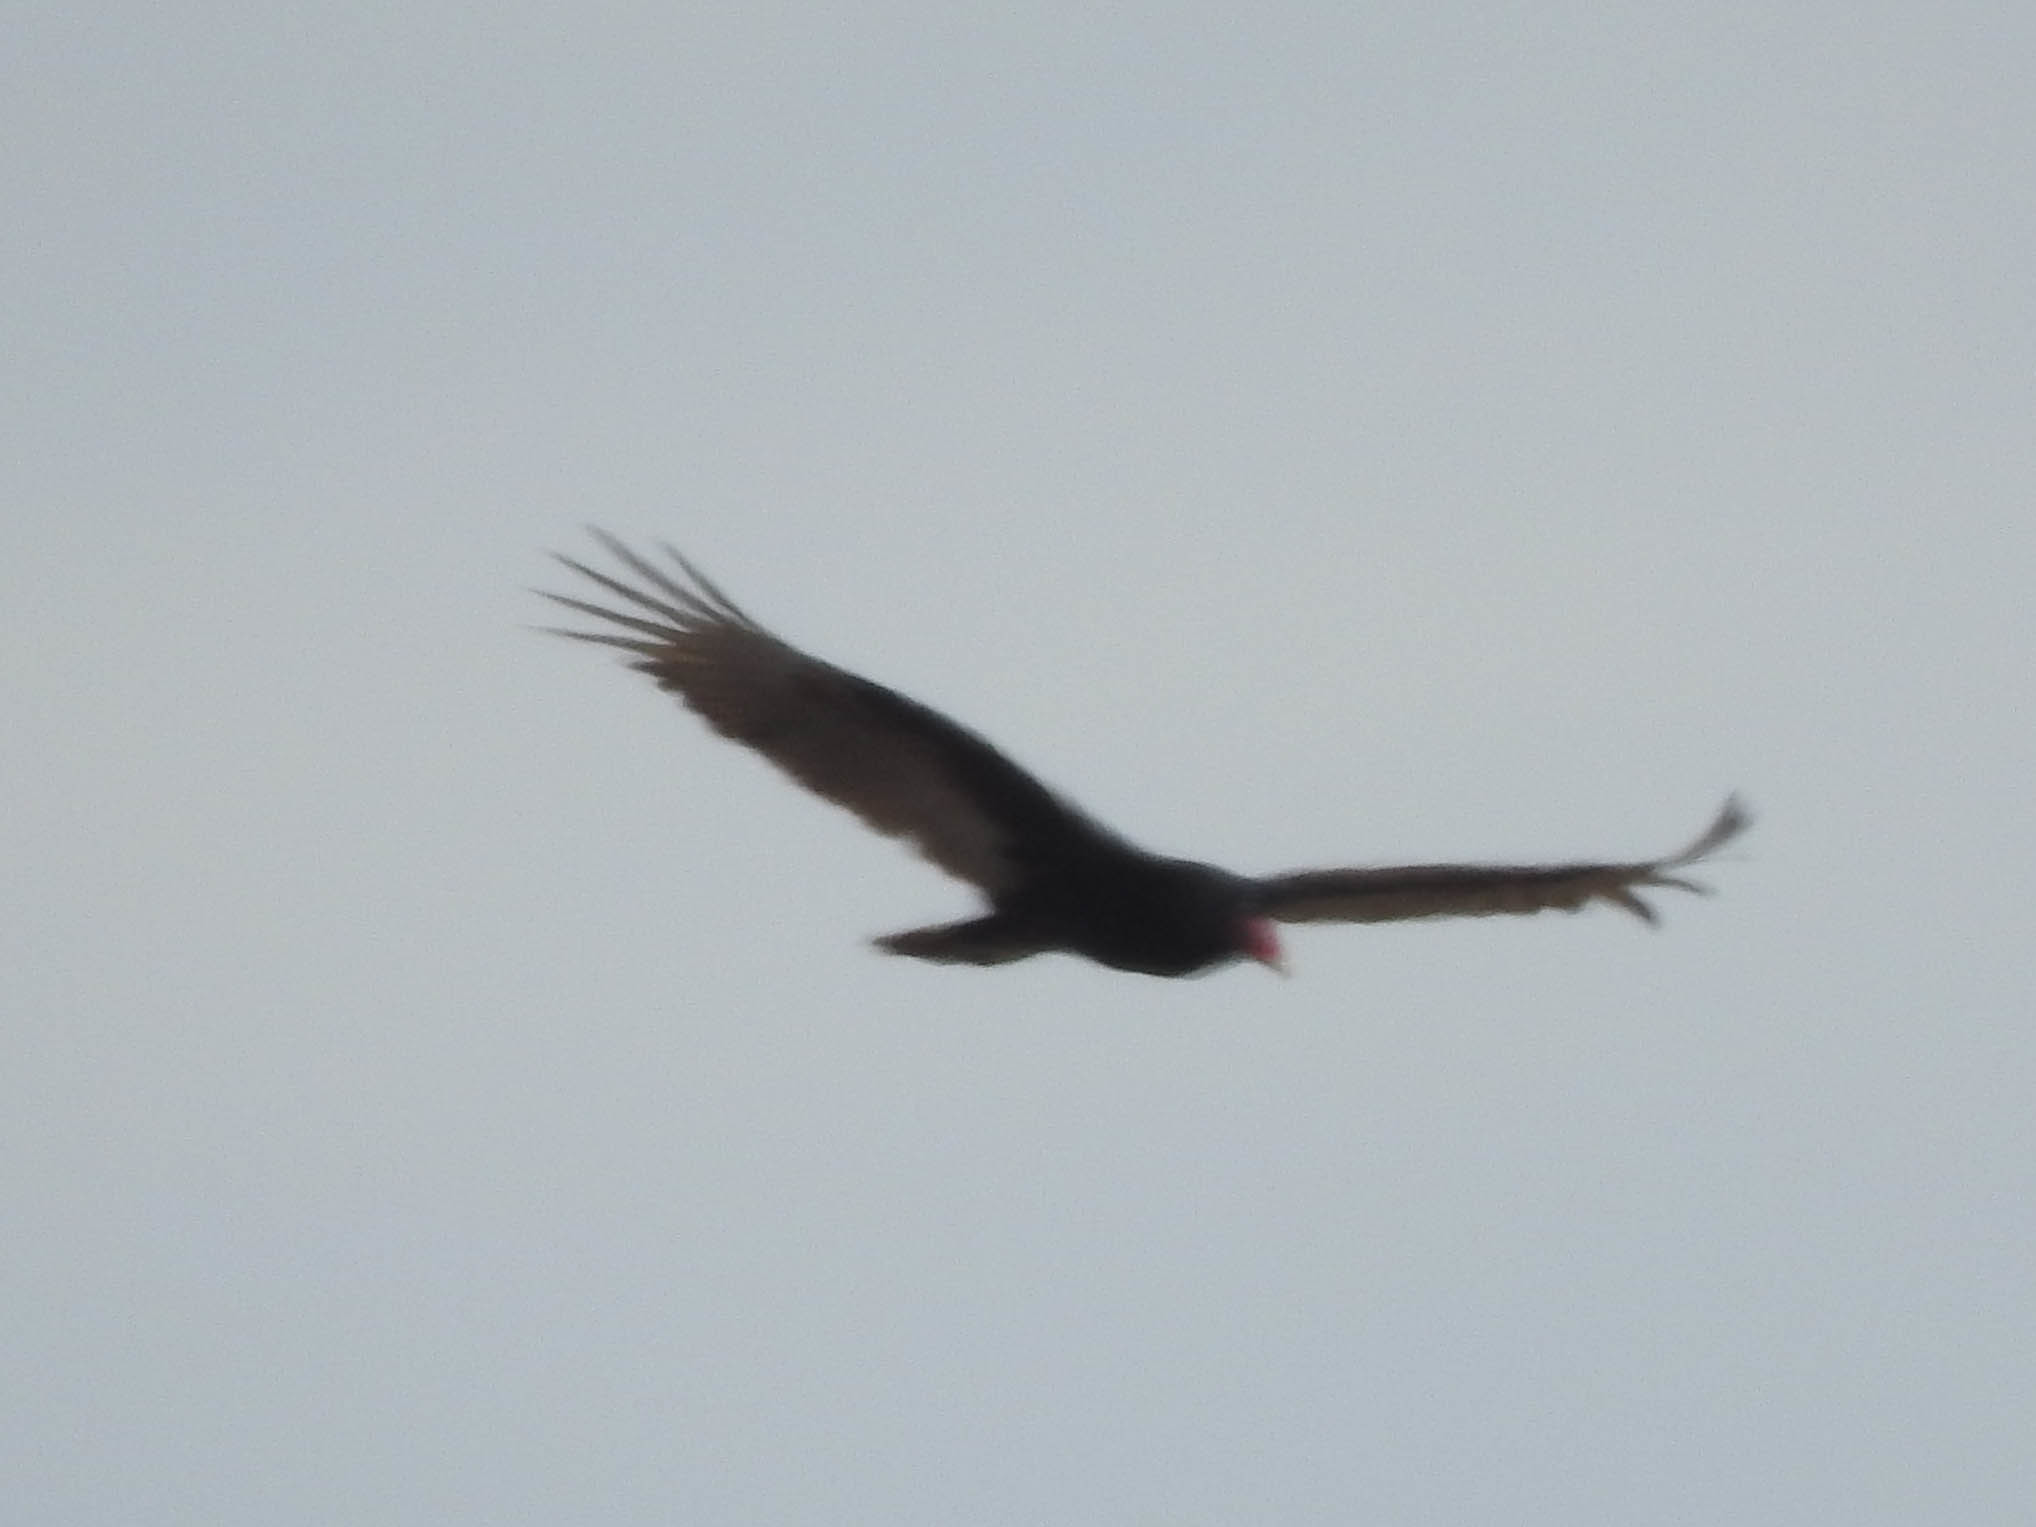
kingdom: Animalia
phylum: Chordata
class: Aves
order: Accipitriformes
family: Cathartidae
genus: Cathartes
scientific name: Cathartes aura
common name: Turkey vulture
